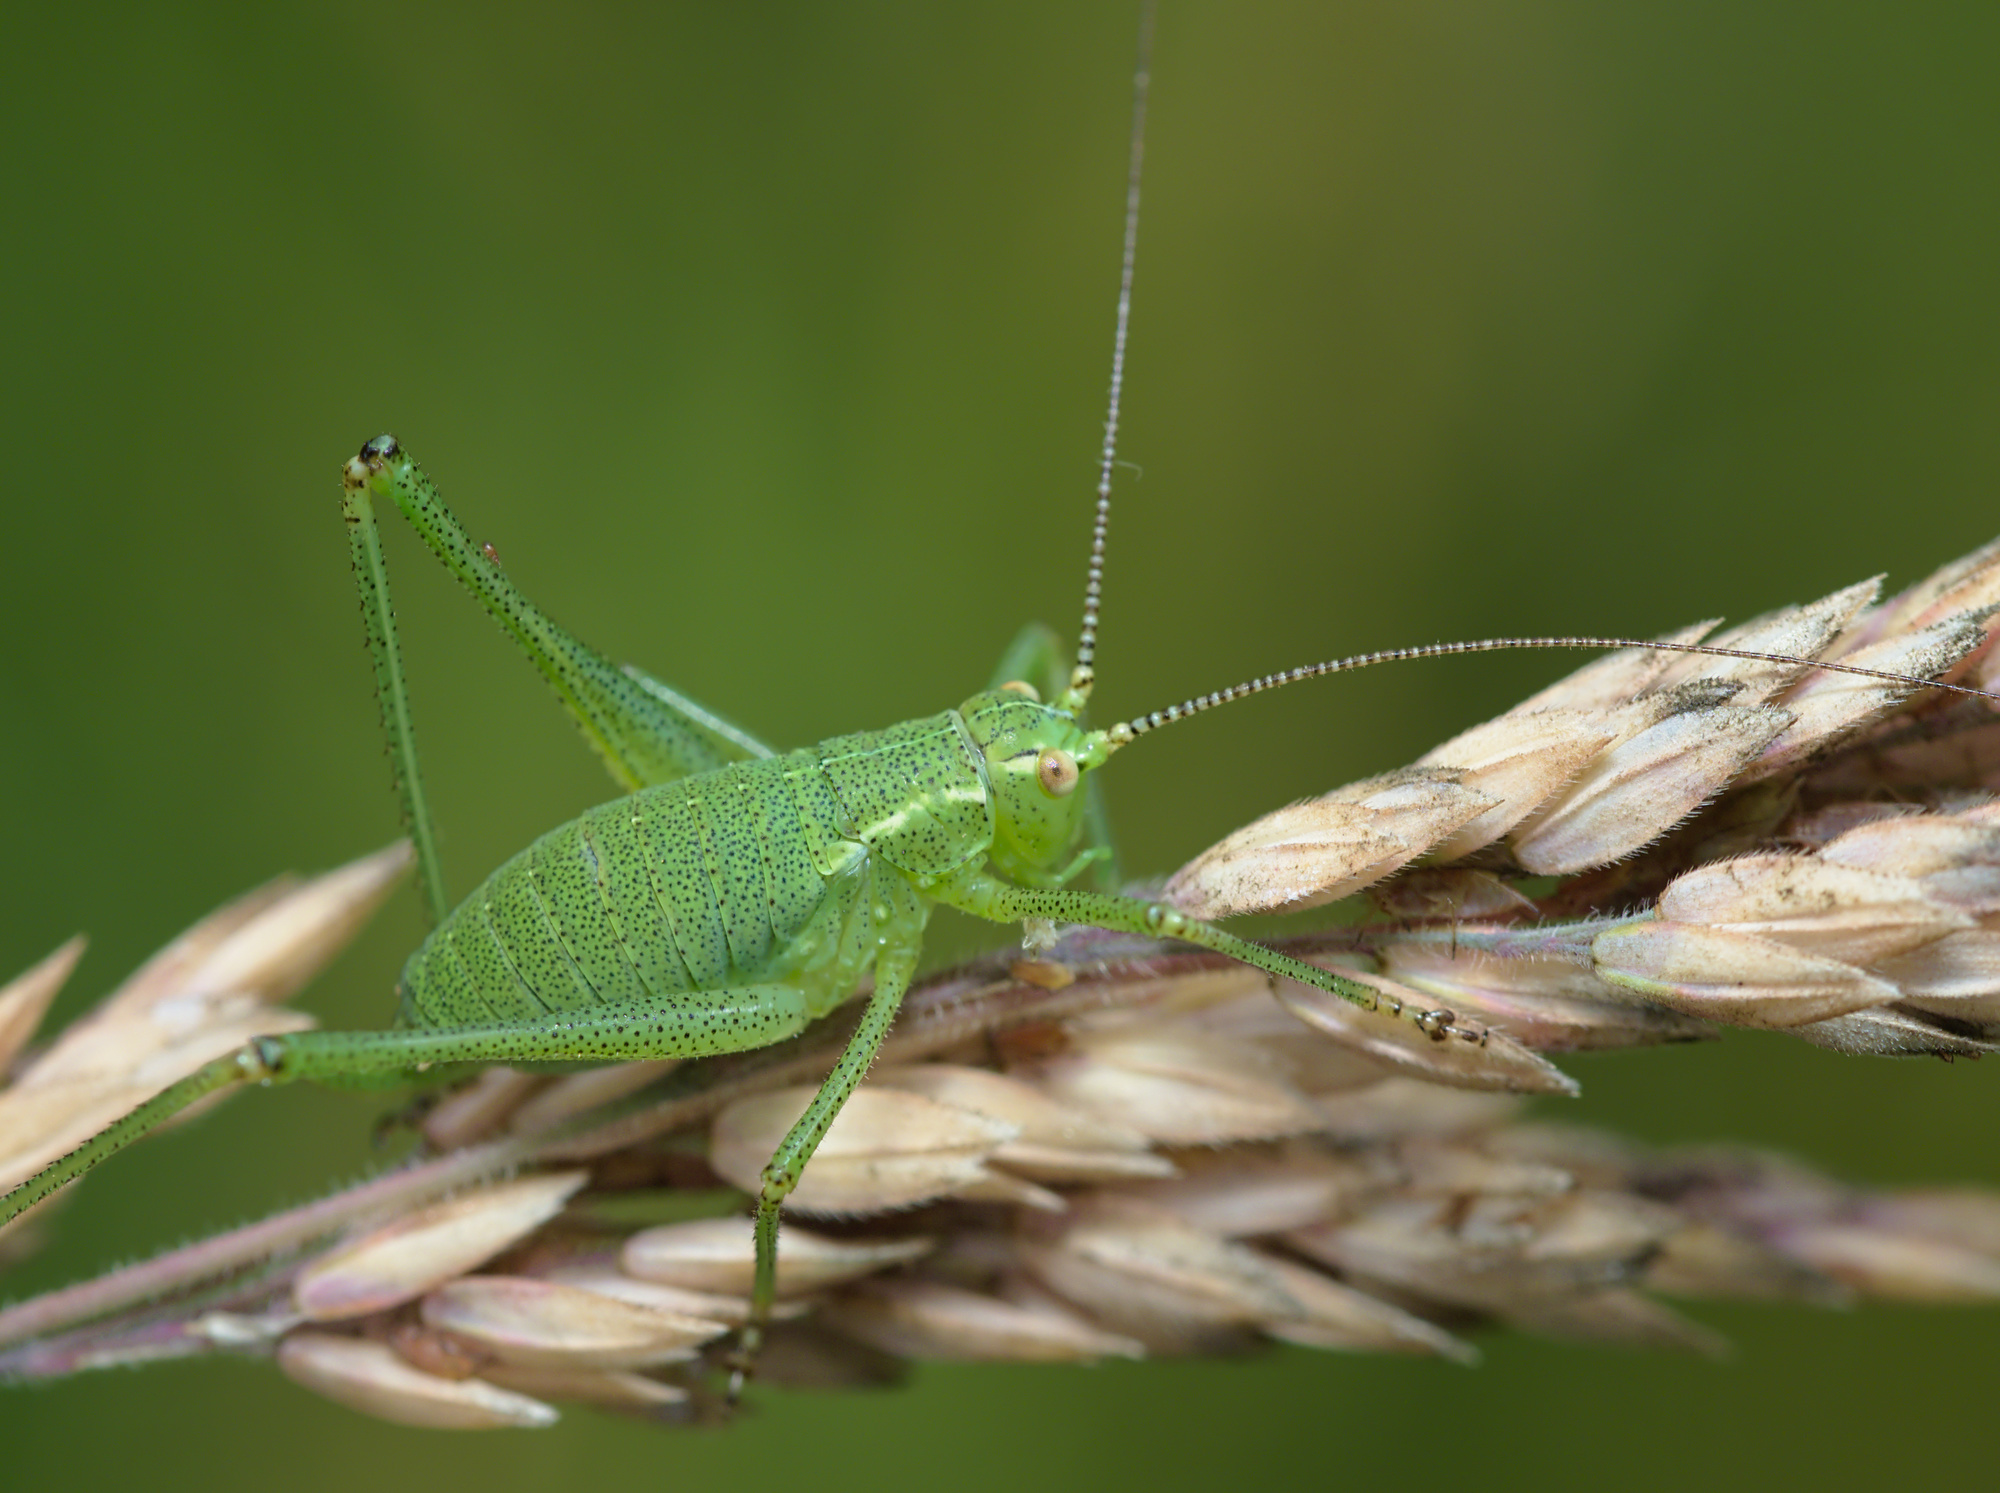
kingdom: Animalia
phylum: Arthropoda
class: Insecta
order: Orthoptera
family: Tettigoniidae
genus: Leptophyes
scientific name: Leptophyes punctatissima
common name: Speckled bush-cricket
